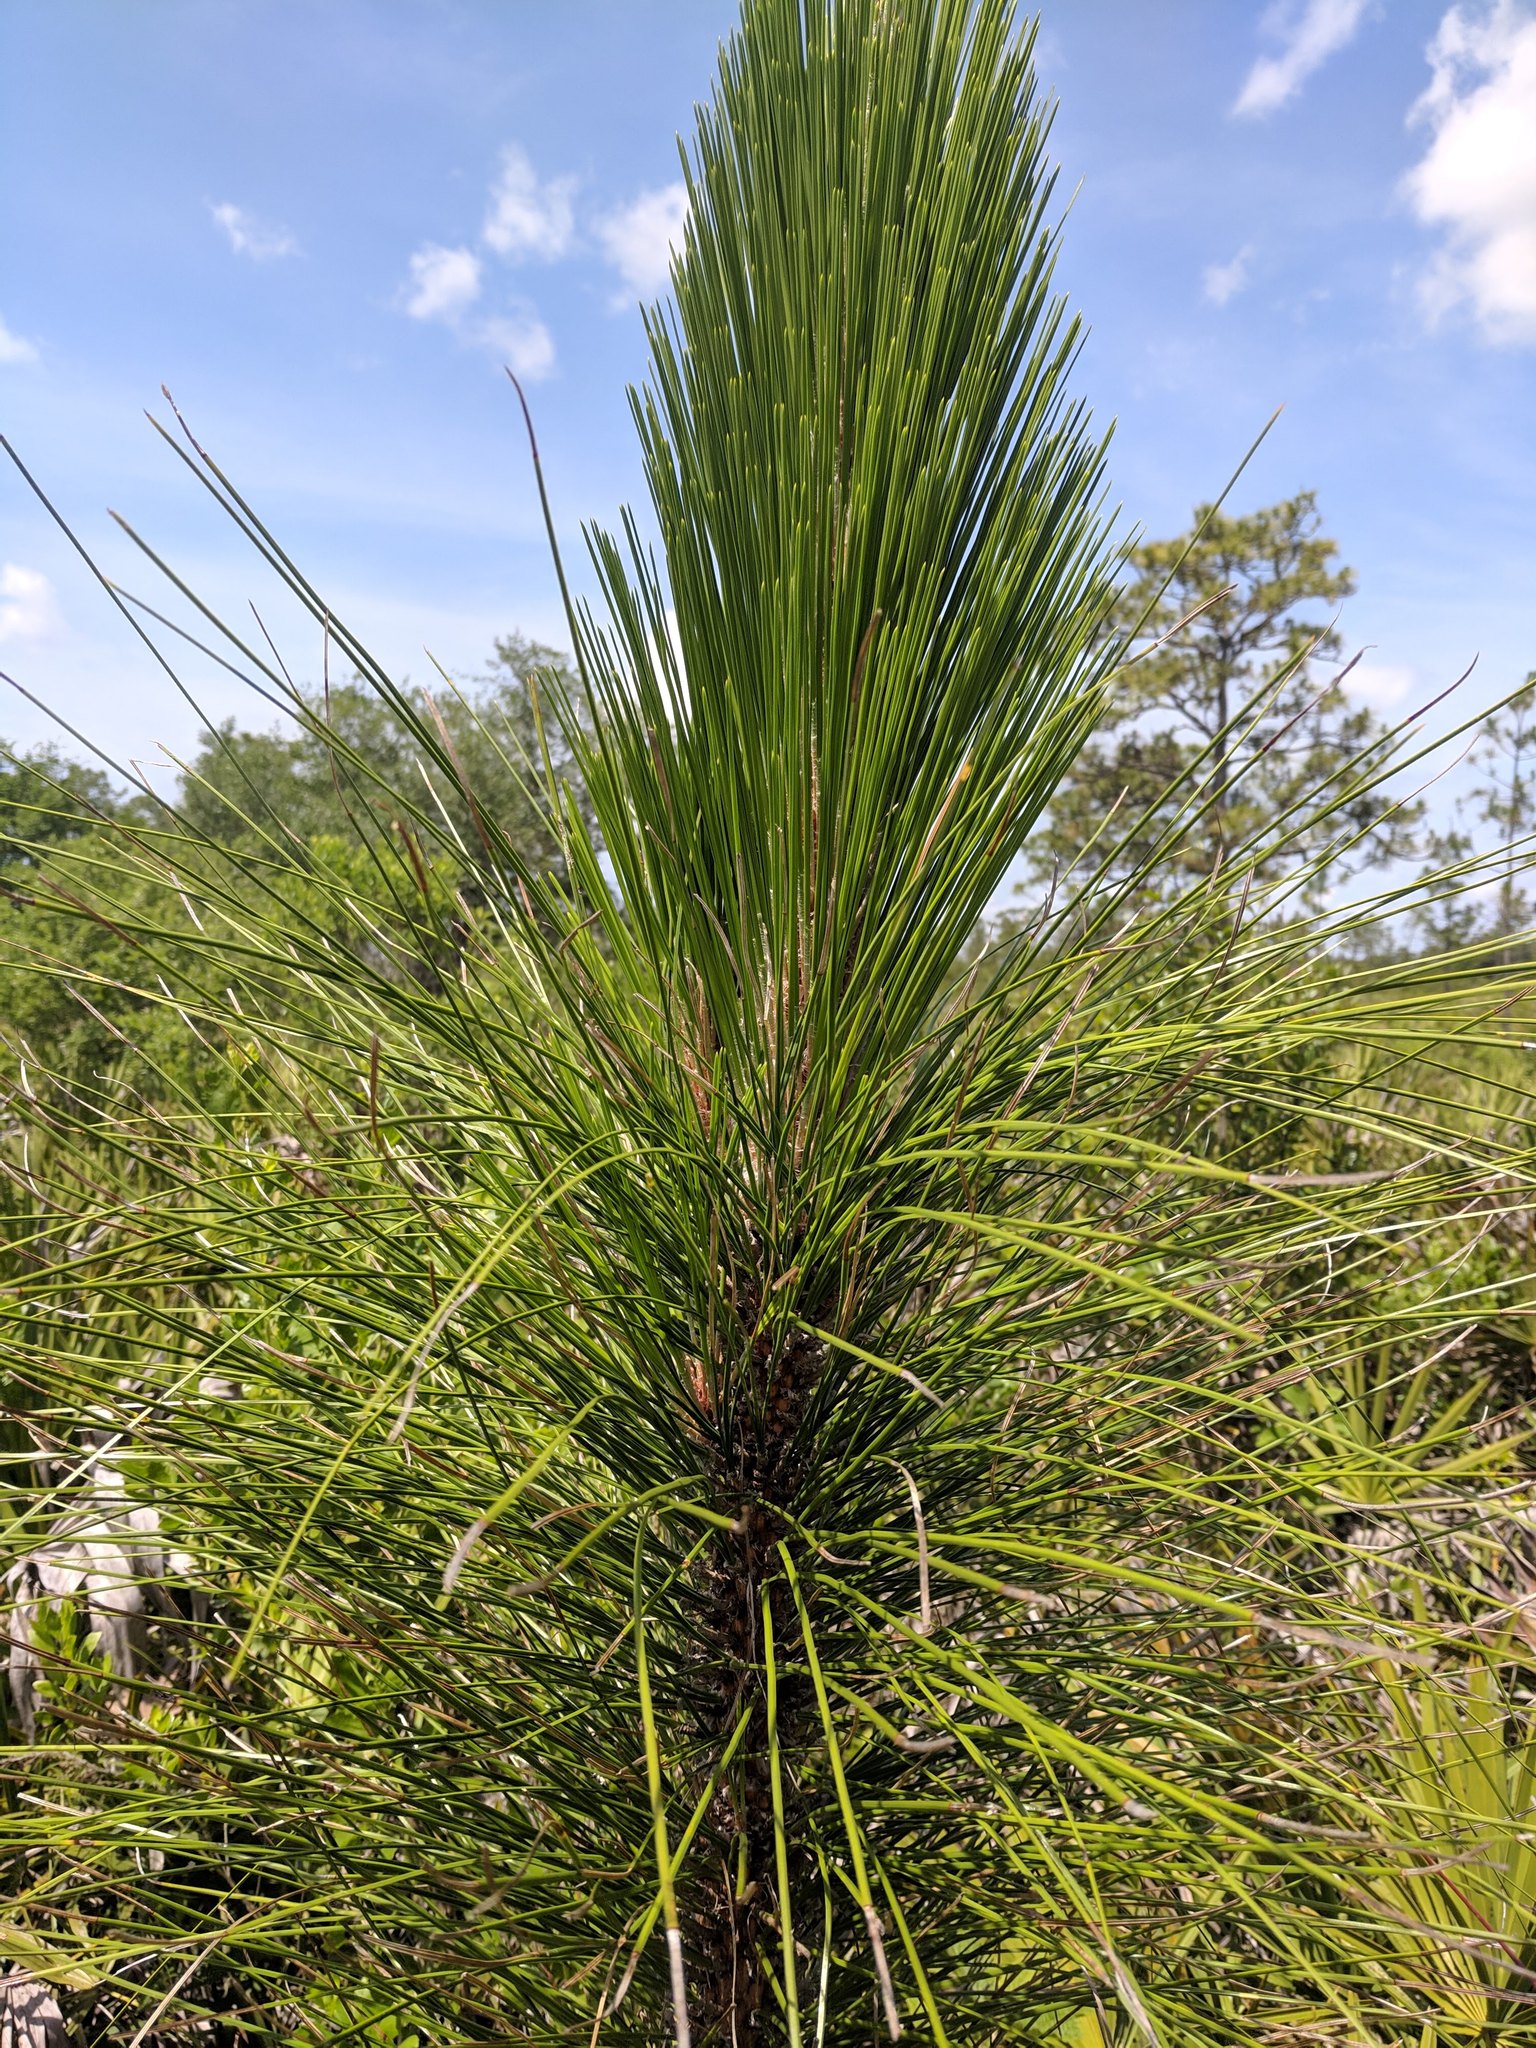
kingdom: Plantae
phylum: Tracheophyta
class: Pinopsida
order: Pinales
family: Pinaceae
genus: Pinus
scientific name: Pinus palustris
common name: Longleaf pine
